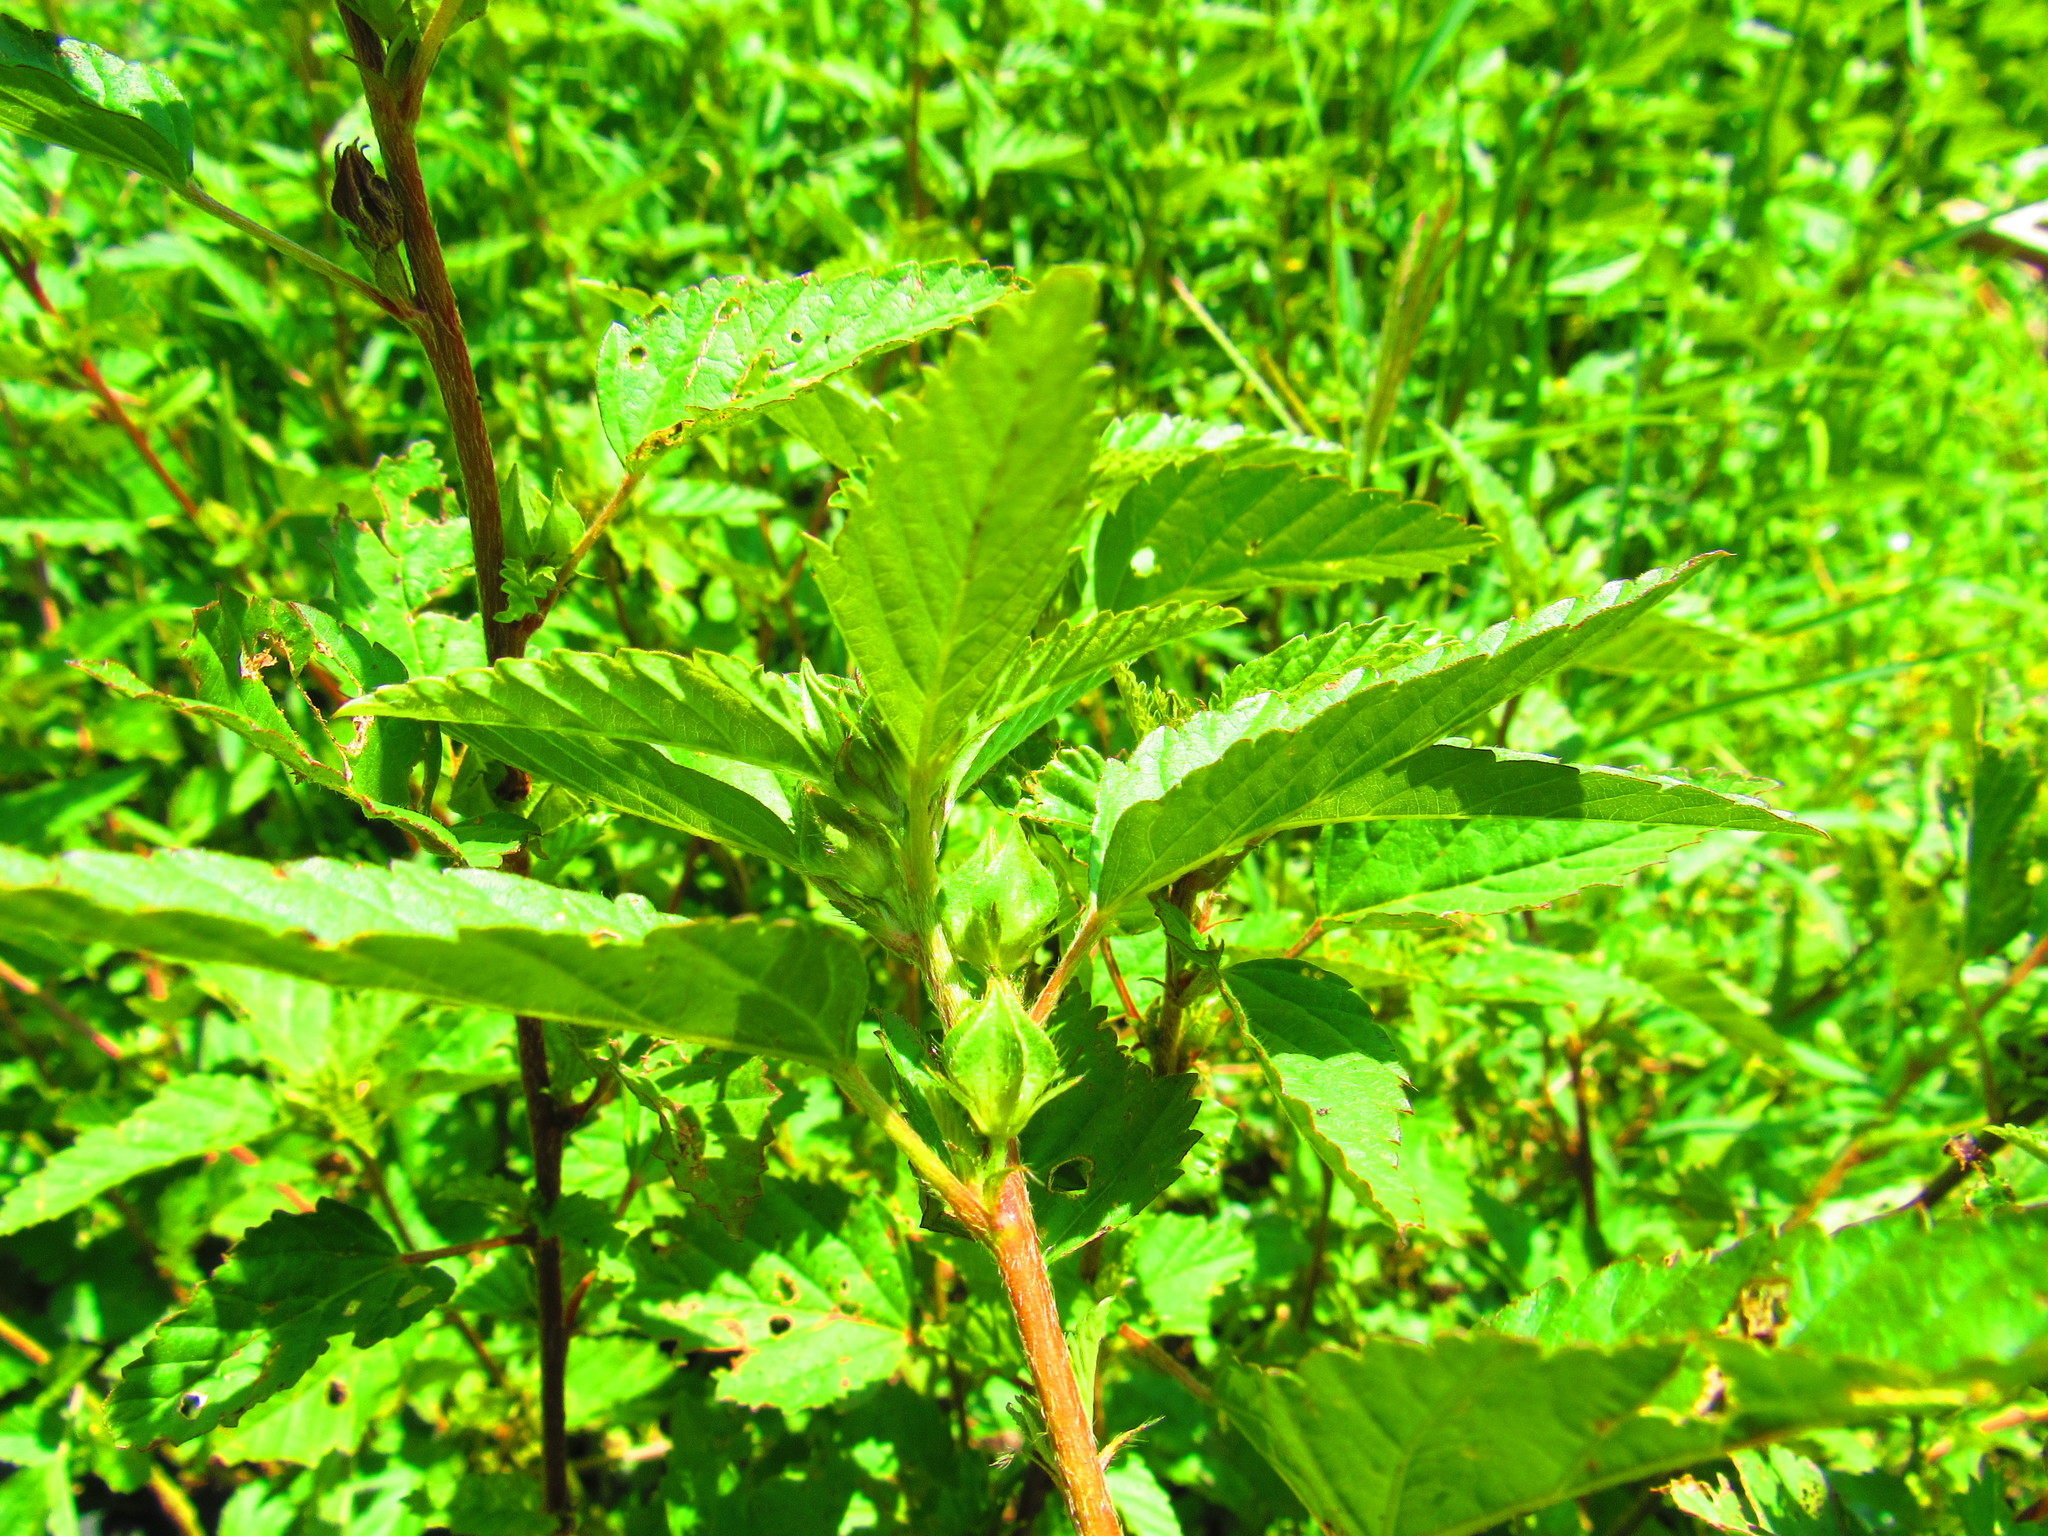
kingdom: Plantae
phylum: Tracheophyta
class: Magnoliopsida
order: Malvales
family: Malvaceae
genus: Malvastrum
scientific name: Malvastrum coromandelianum
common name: Threelobe false mallow
